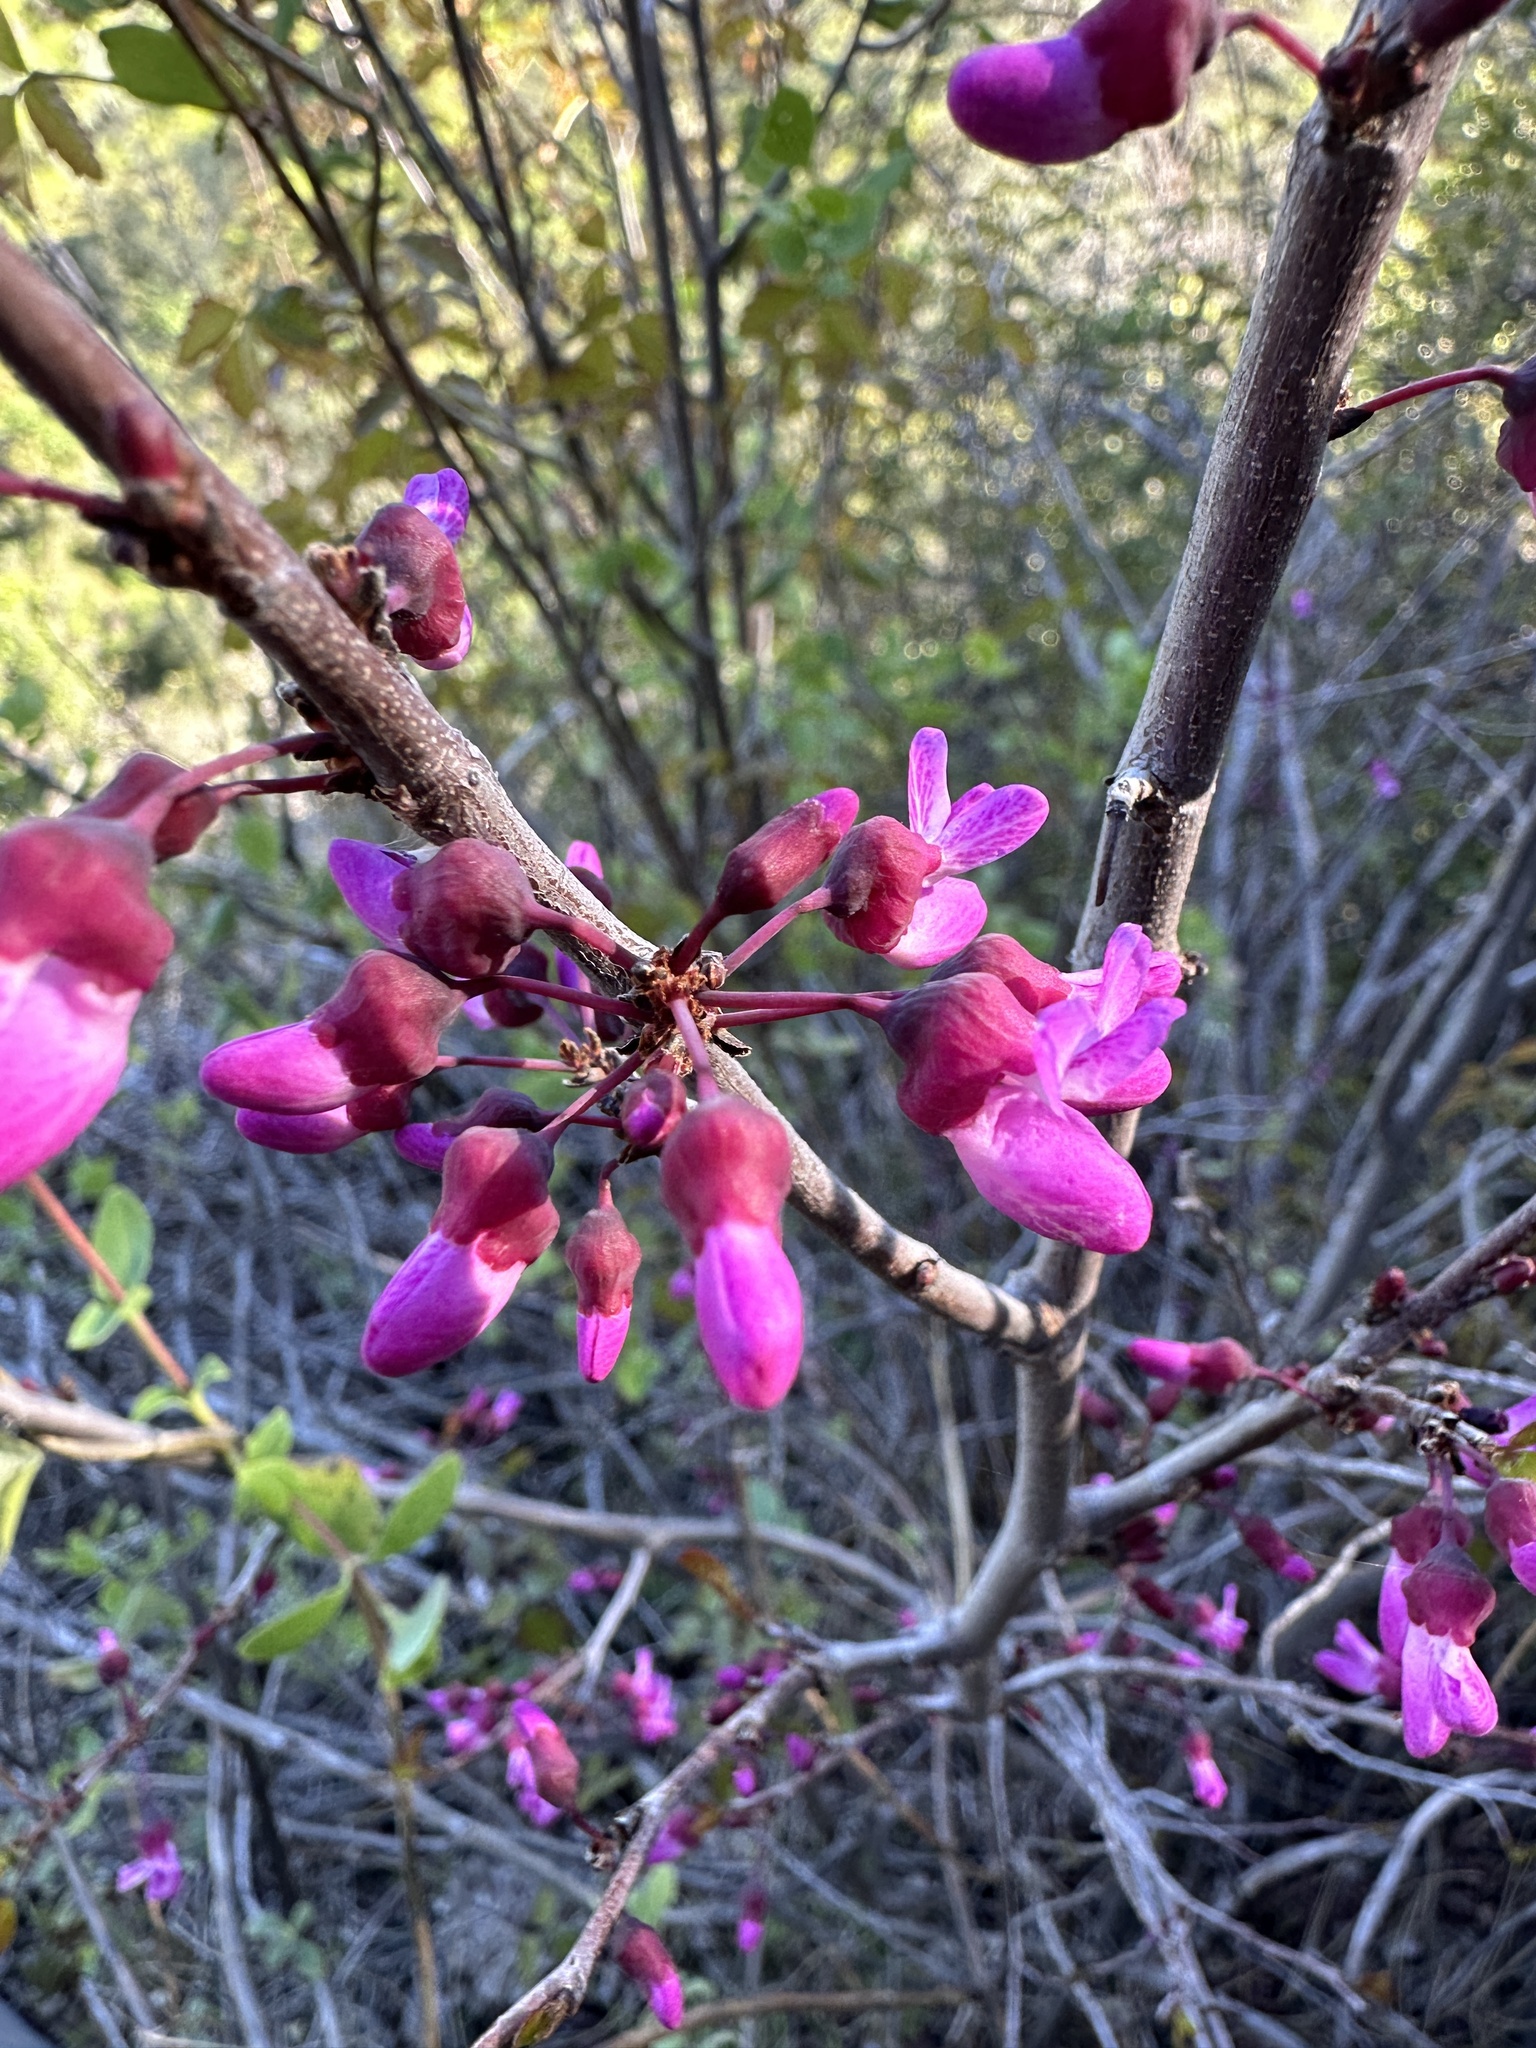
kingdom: Plantae
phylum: Tracheophyta
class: Magnoliopsida
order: Fabales
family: Fabaceae
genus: Cercis
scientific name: Cercis occidentalis
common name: California redbud
